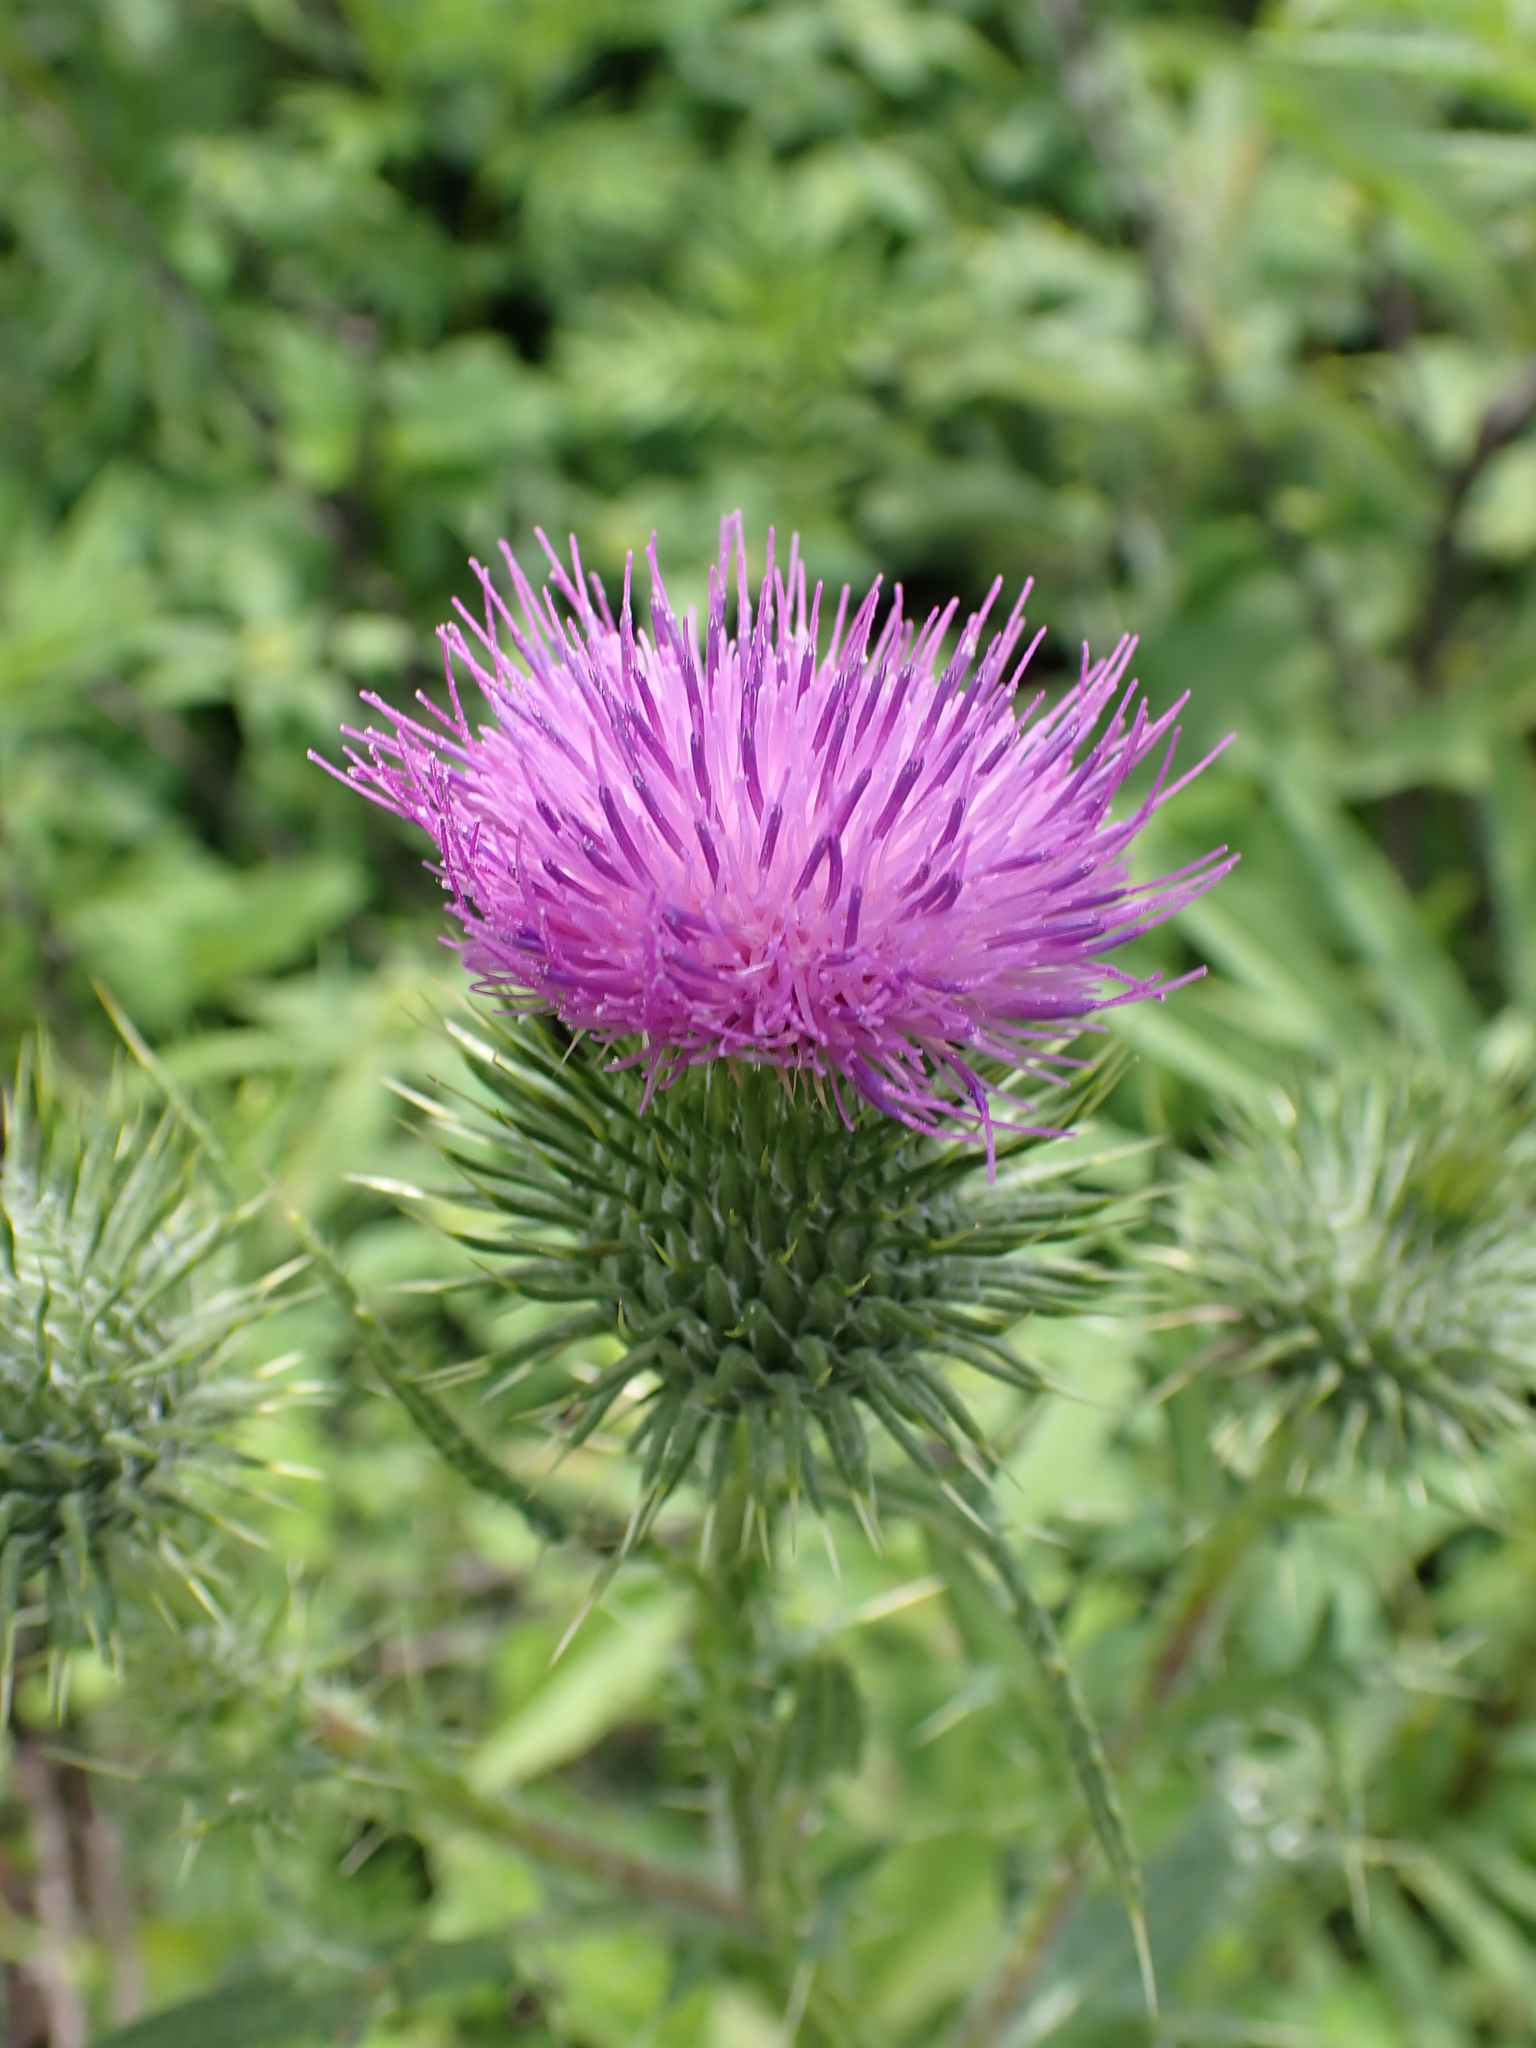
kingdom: Plantae
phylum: Tracheophyta
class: Magnoliopsida
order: Asterales
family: Asteraceae
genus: Cirsium
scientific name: Cirsium vulgare
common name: Bull thistle
